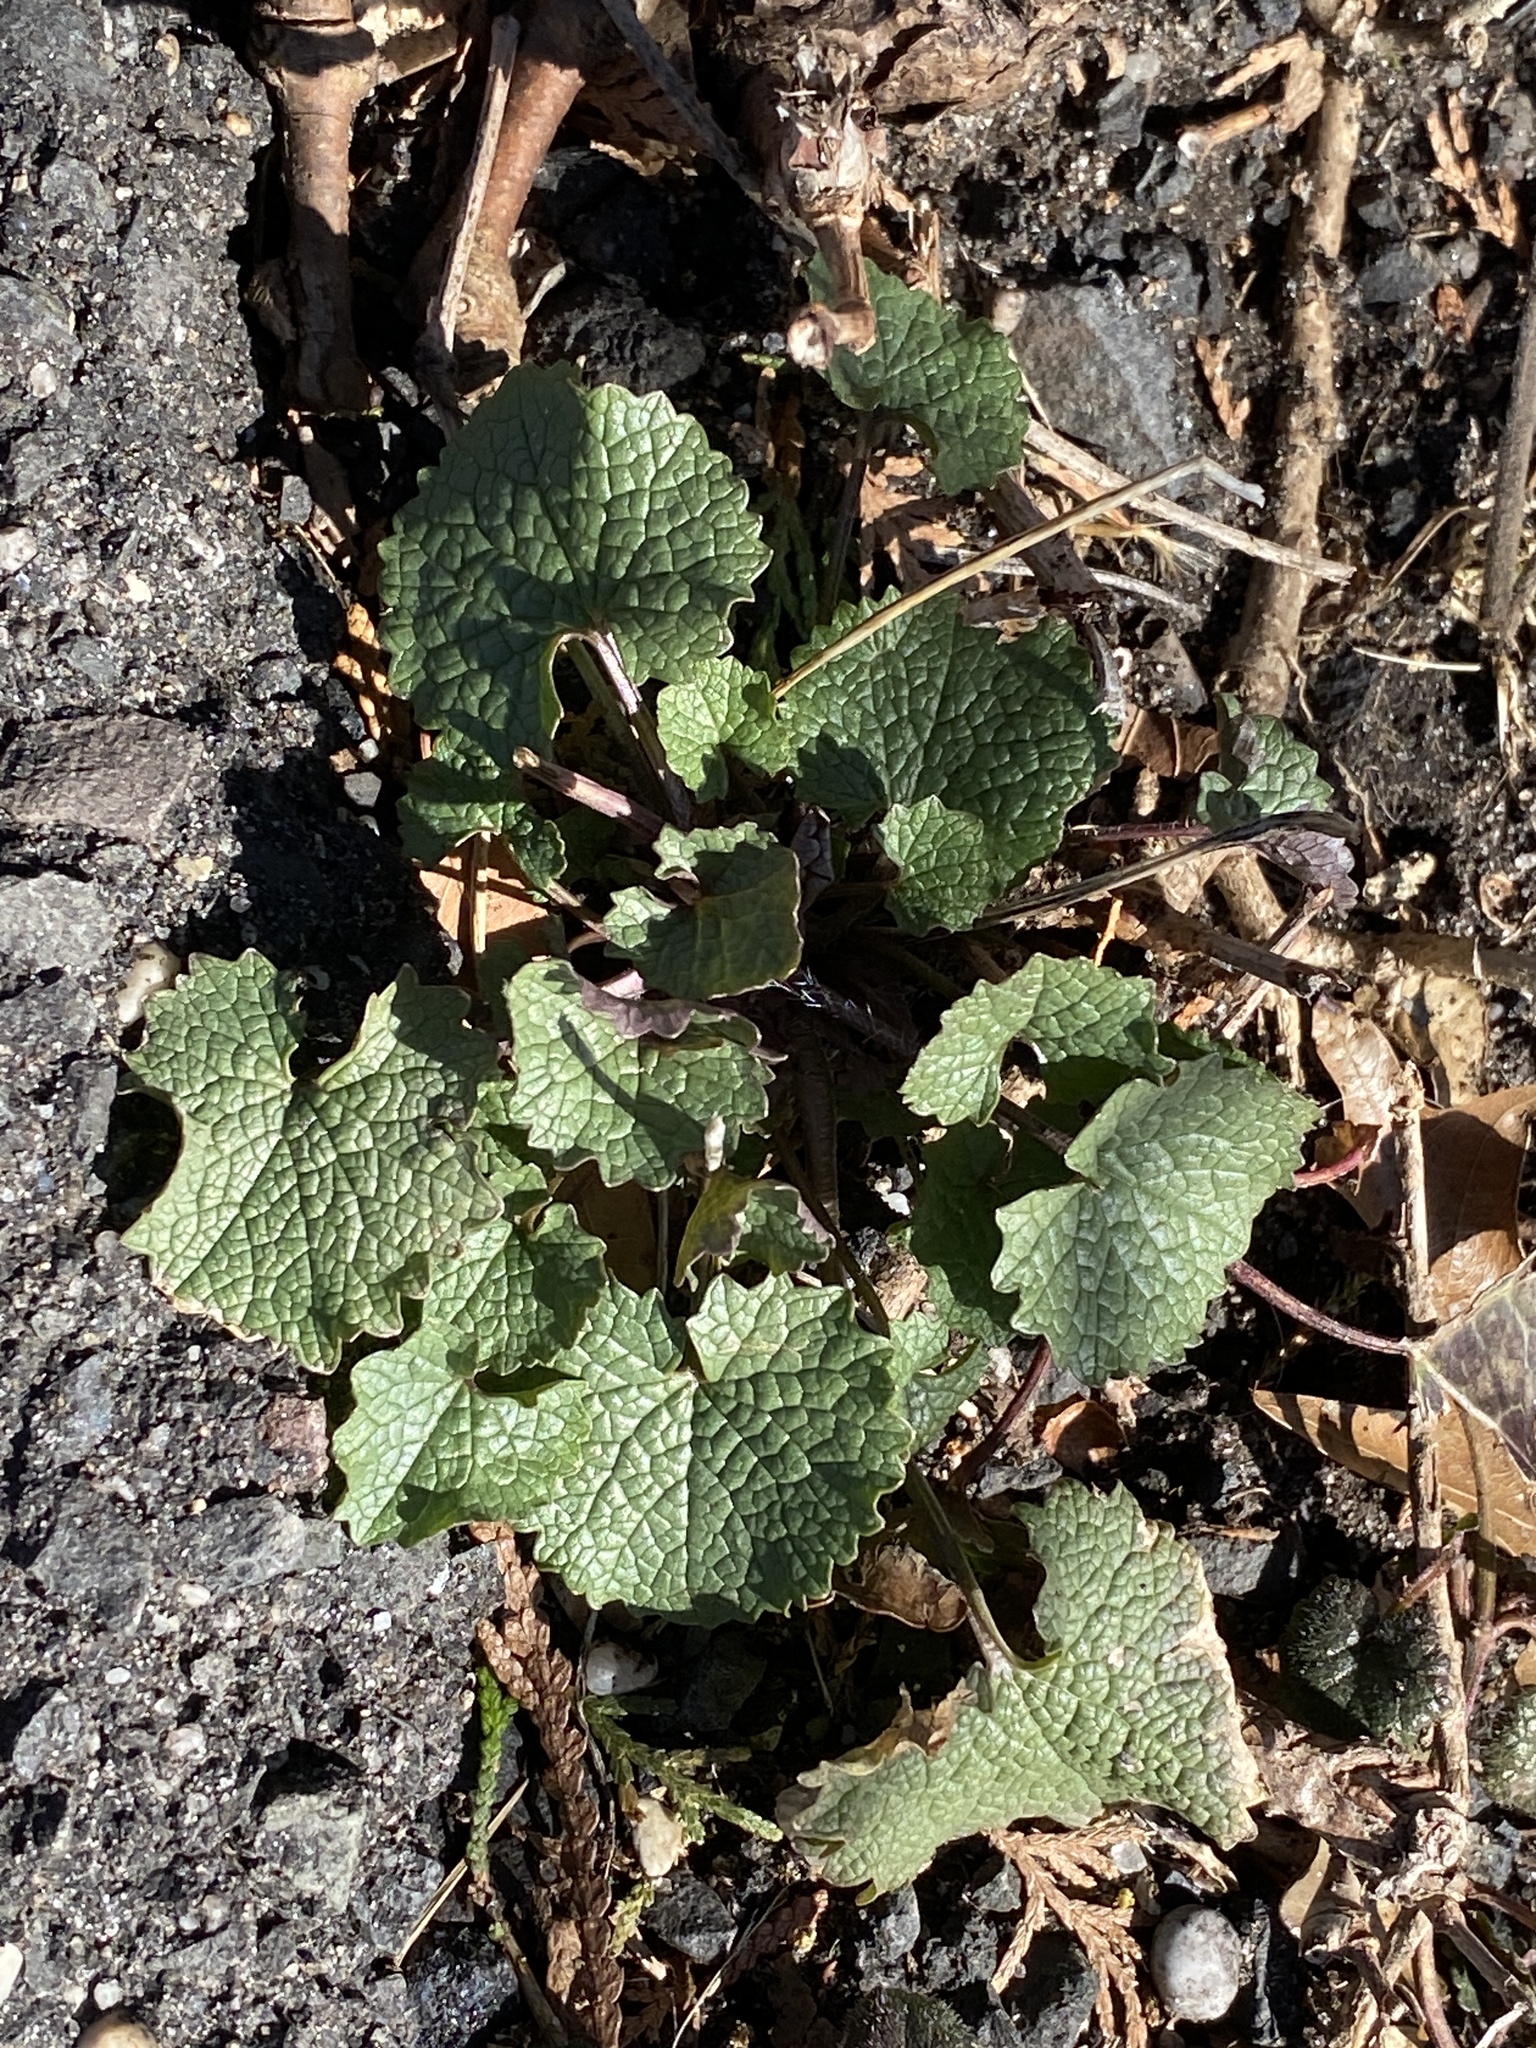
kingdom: Plantae
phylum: Tracheophyta
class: Magnoliopsida
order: Brassicales
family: Brassicaceae
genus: Alliaria
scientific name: Alliaria petiolata
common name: Garlic mustard
